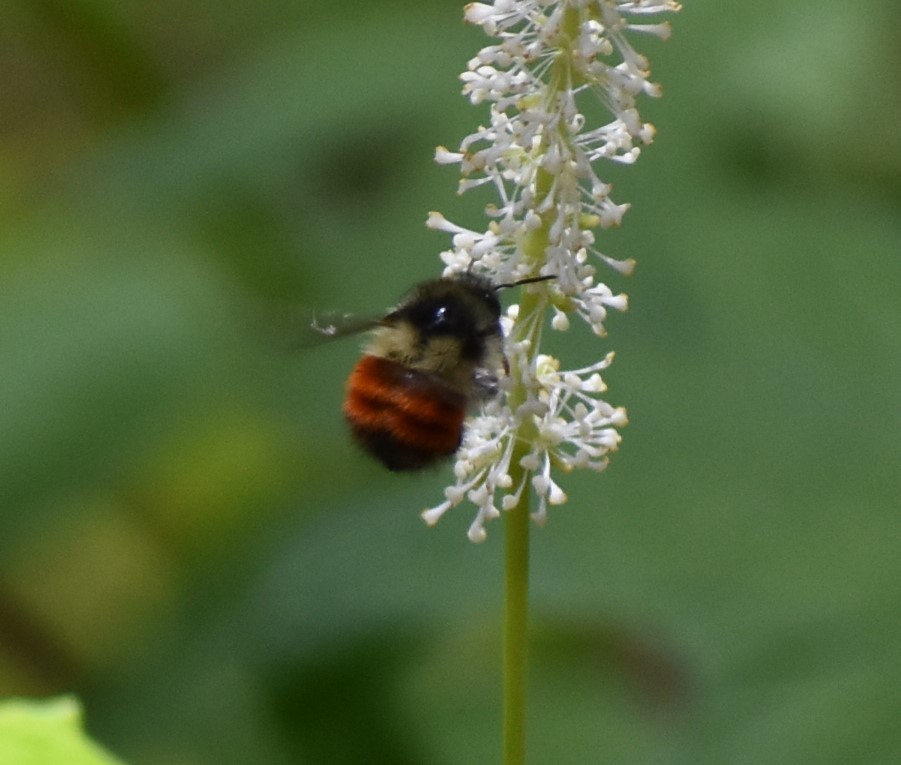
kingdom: Animalia
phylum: Arthropoda
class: Insecta
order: Hymenoptera
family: Apidae
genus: Bombus
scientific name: Bombus melanopygus
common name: Black tail bumble bee
